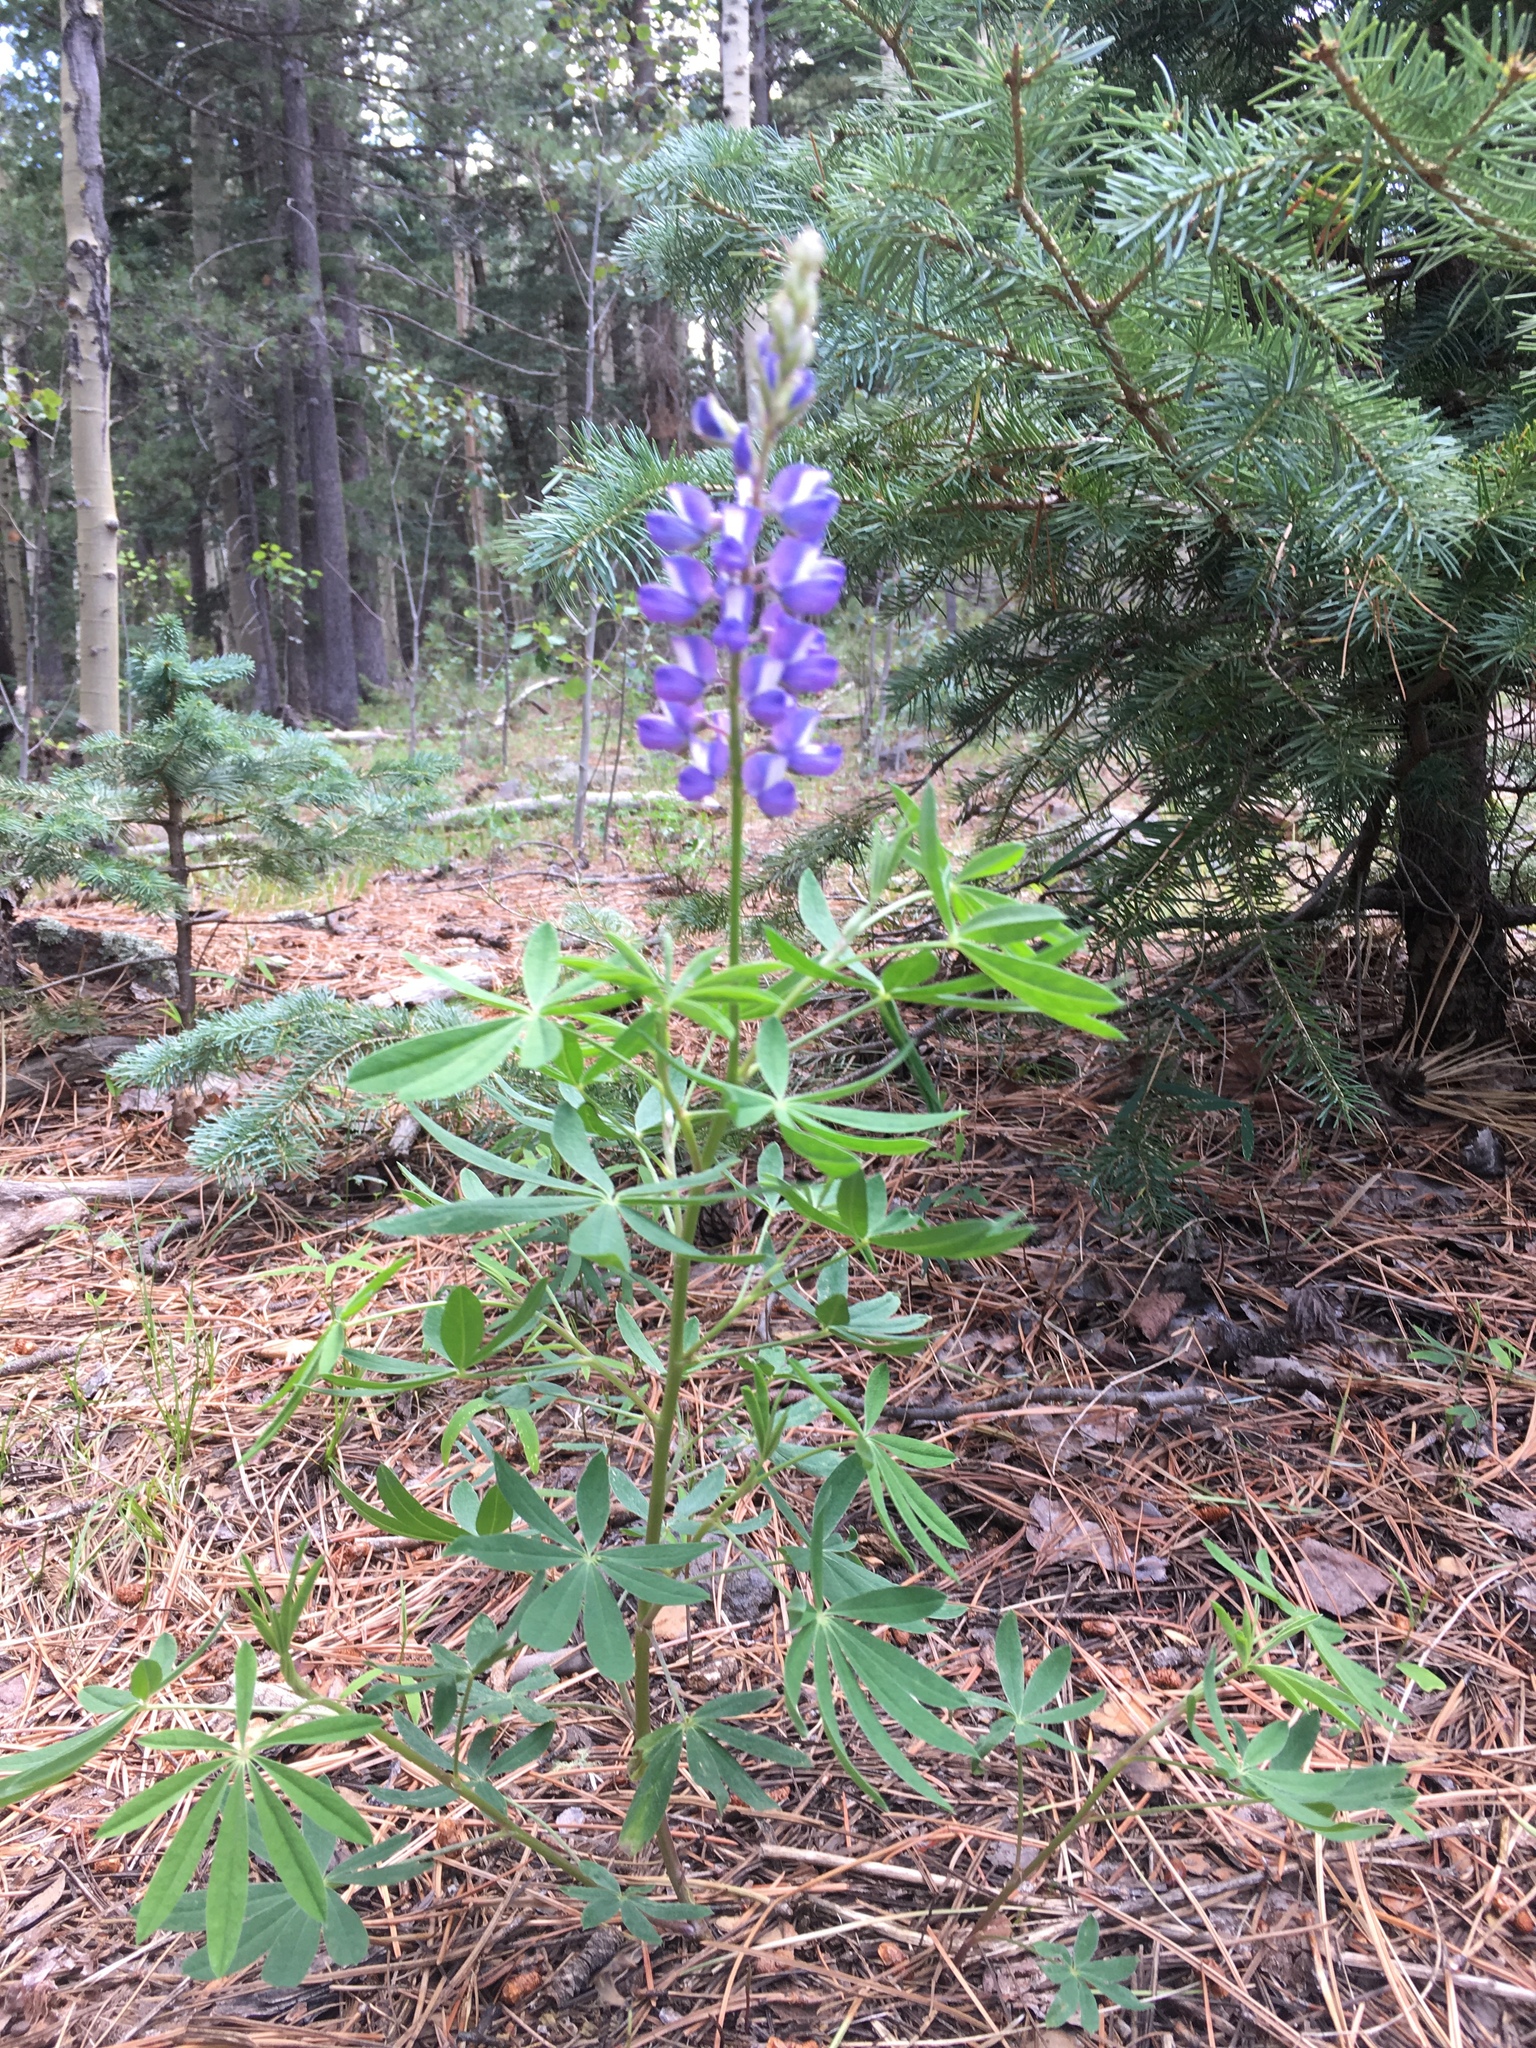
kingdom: Plantae
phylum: Tracheophyta
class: Magnoliopsida
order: Fabales
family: Fabaceae
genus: Lupinus
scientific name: Lupinus argenteus
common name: Silvery lupine
